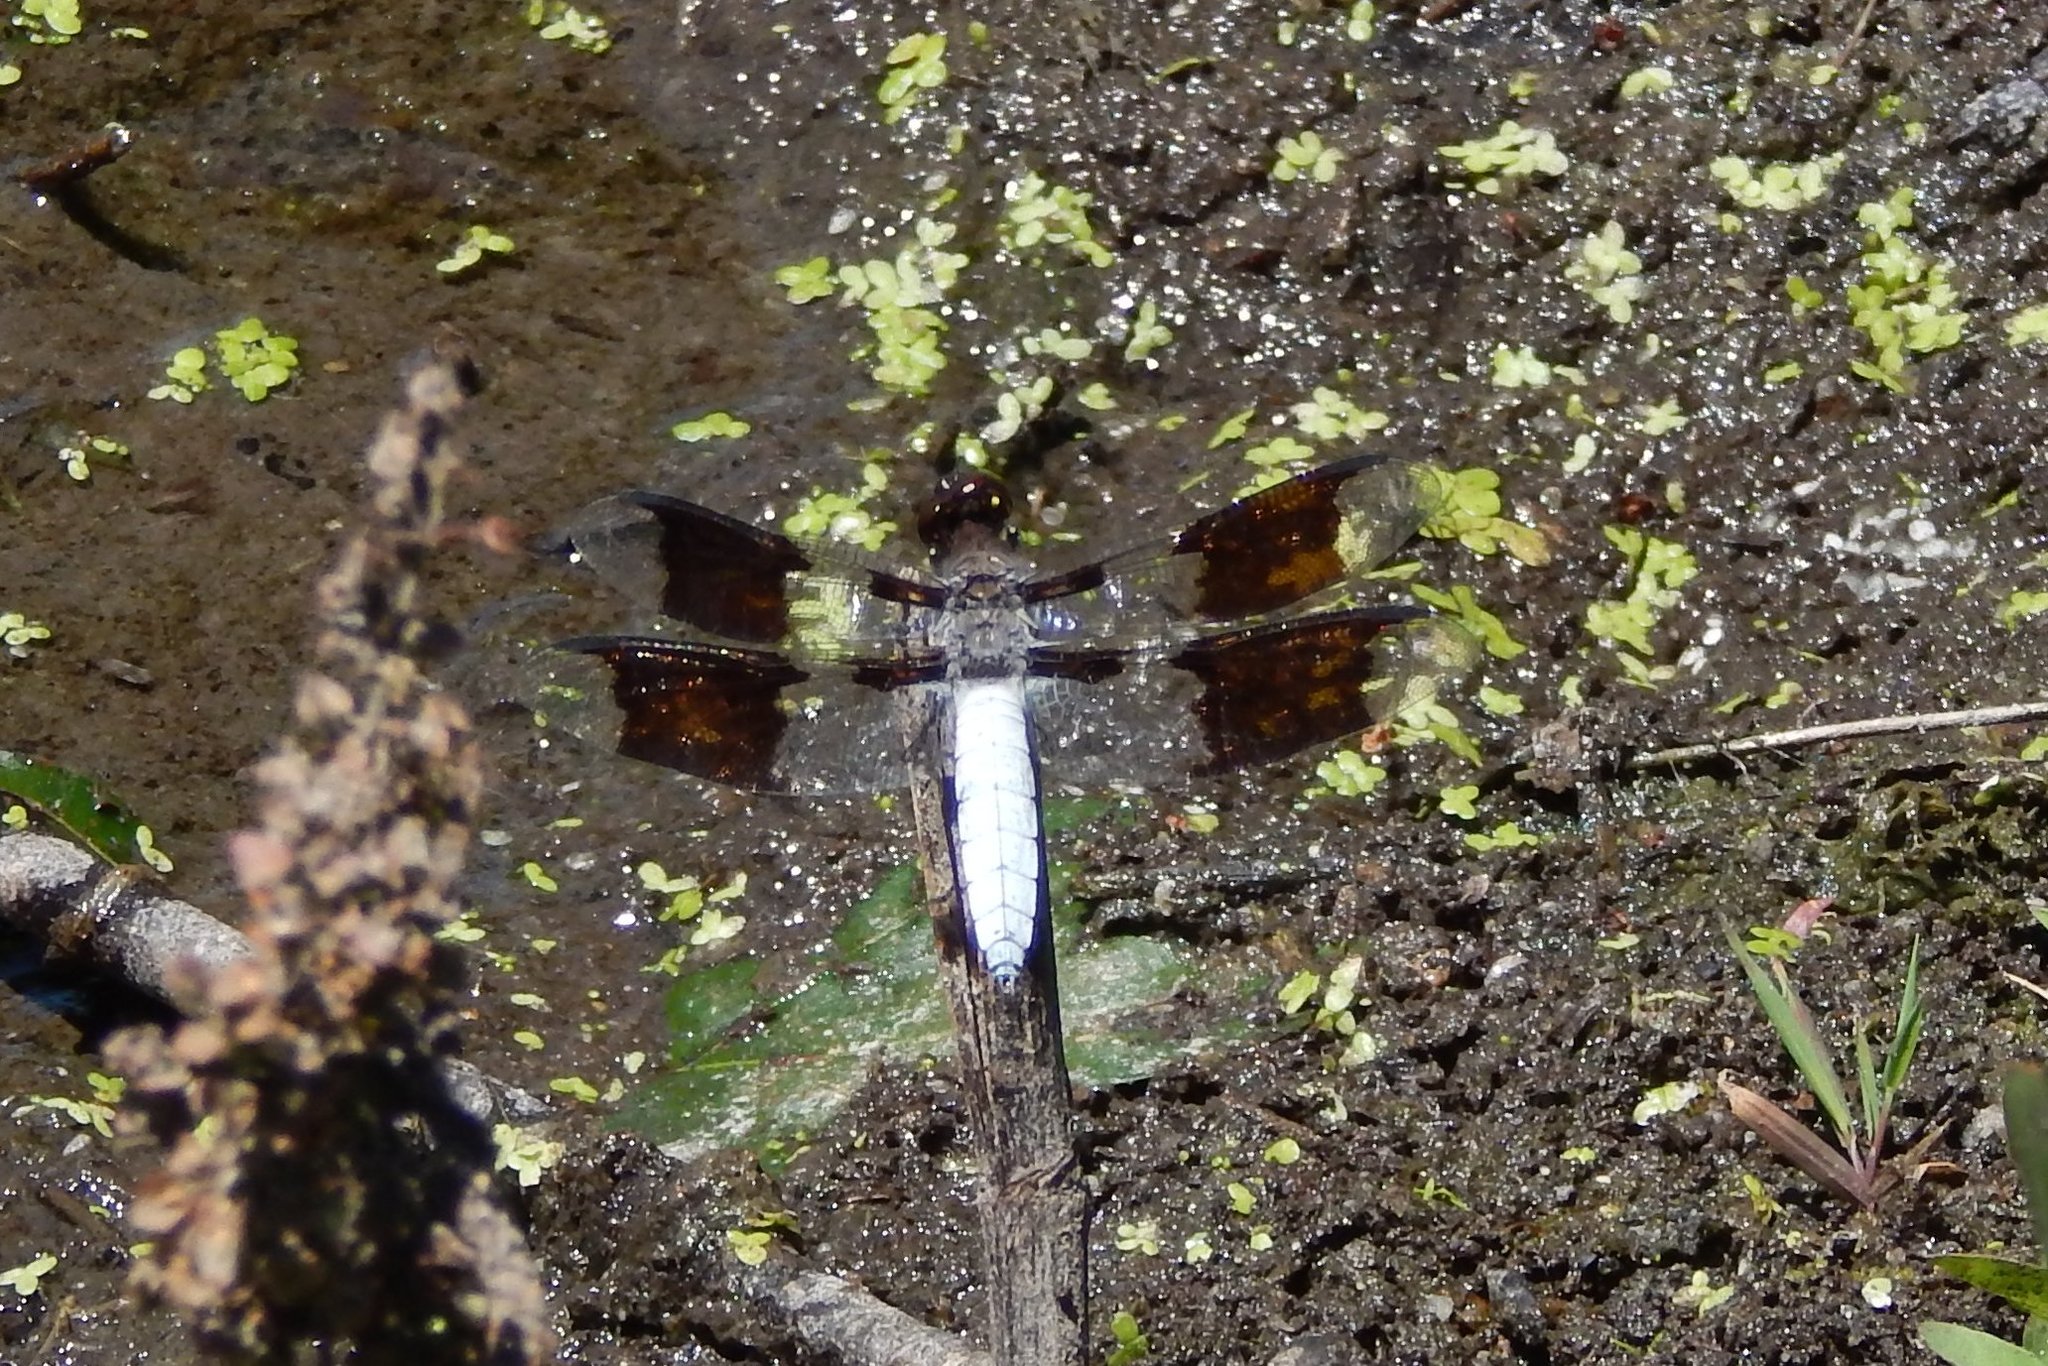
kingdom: Animalia
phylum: Arthropoda
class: Insecta
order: Odonata
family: Libellulidae
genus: Plathemis
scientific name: Plathemis lydia
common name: Common whitetail
